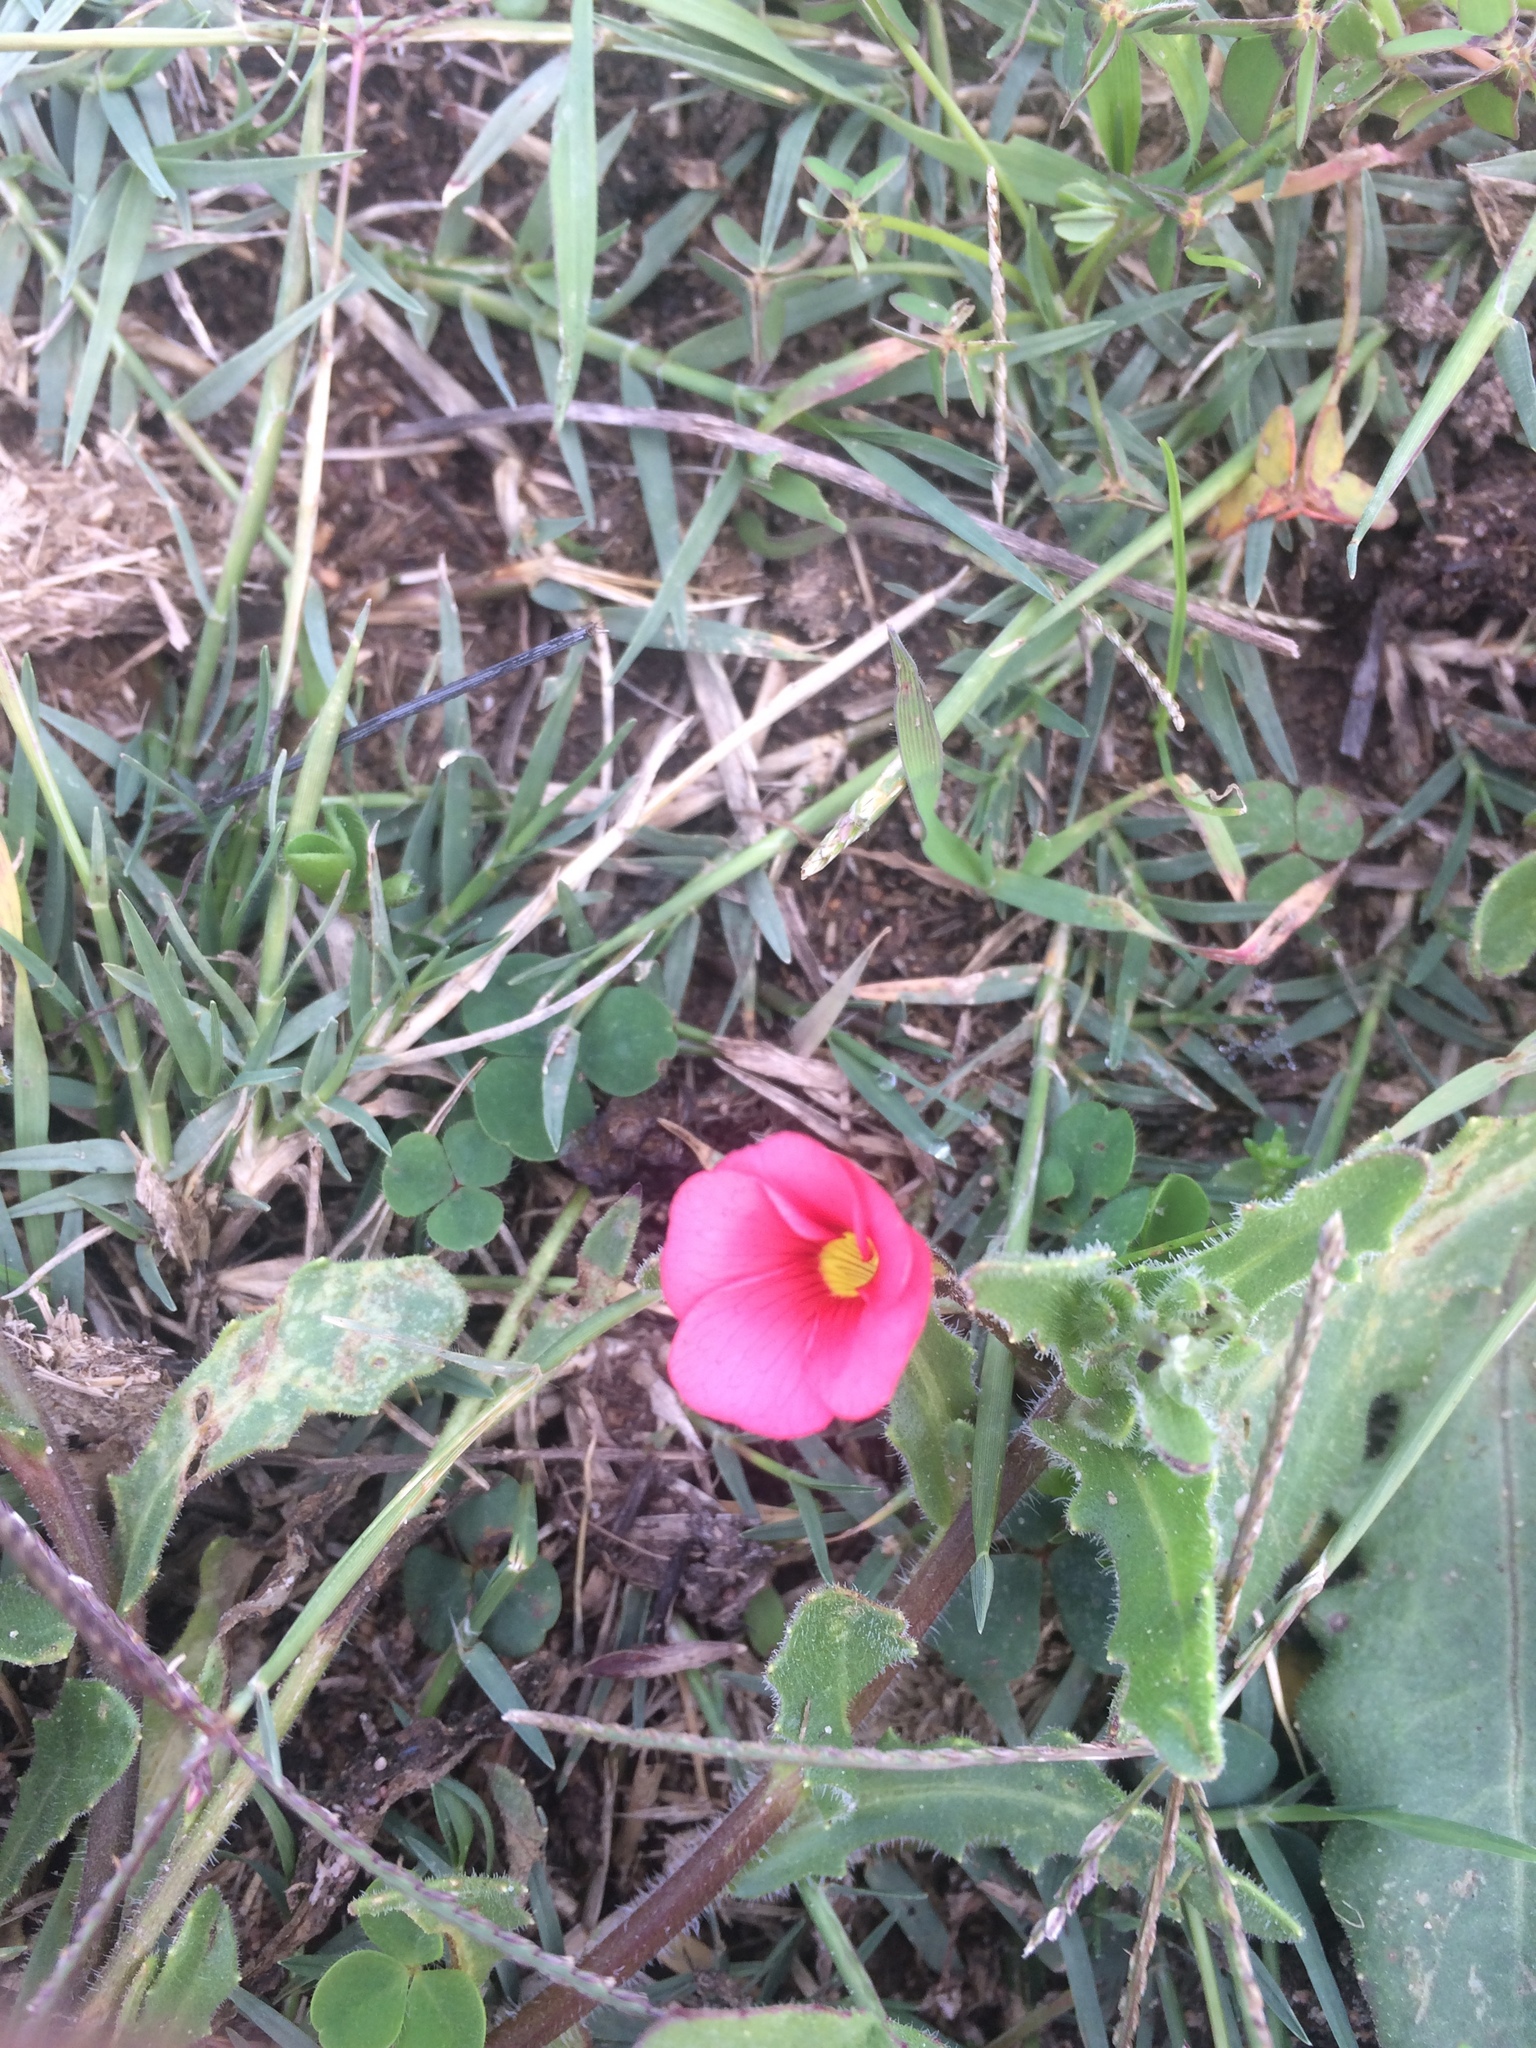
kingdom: Plantae
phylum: Tracheophyta
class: Magnoliopsida
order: Oxalidales
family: Oxalidaceae
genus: Oxalis
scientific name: Oxalis eckloniana
